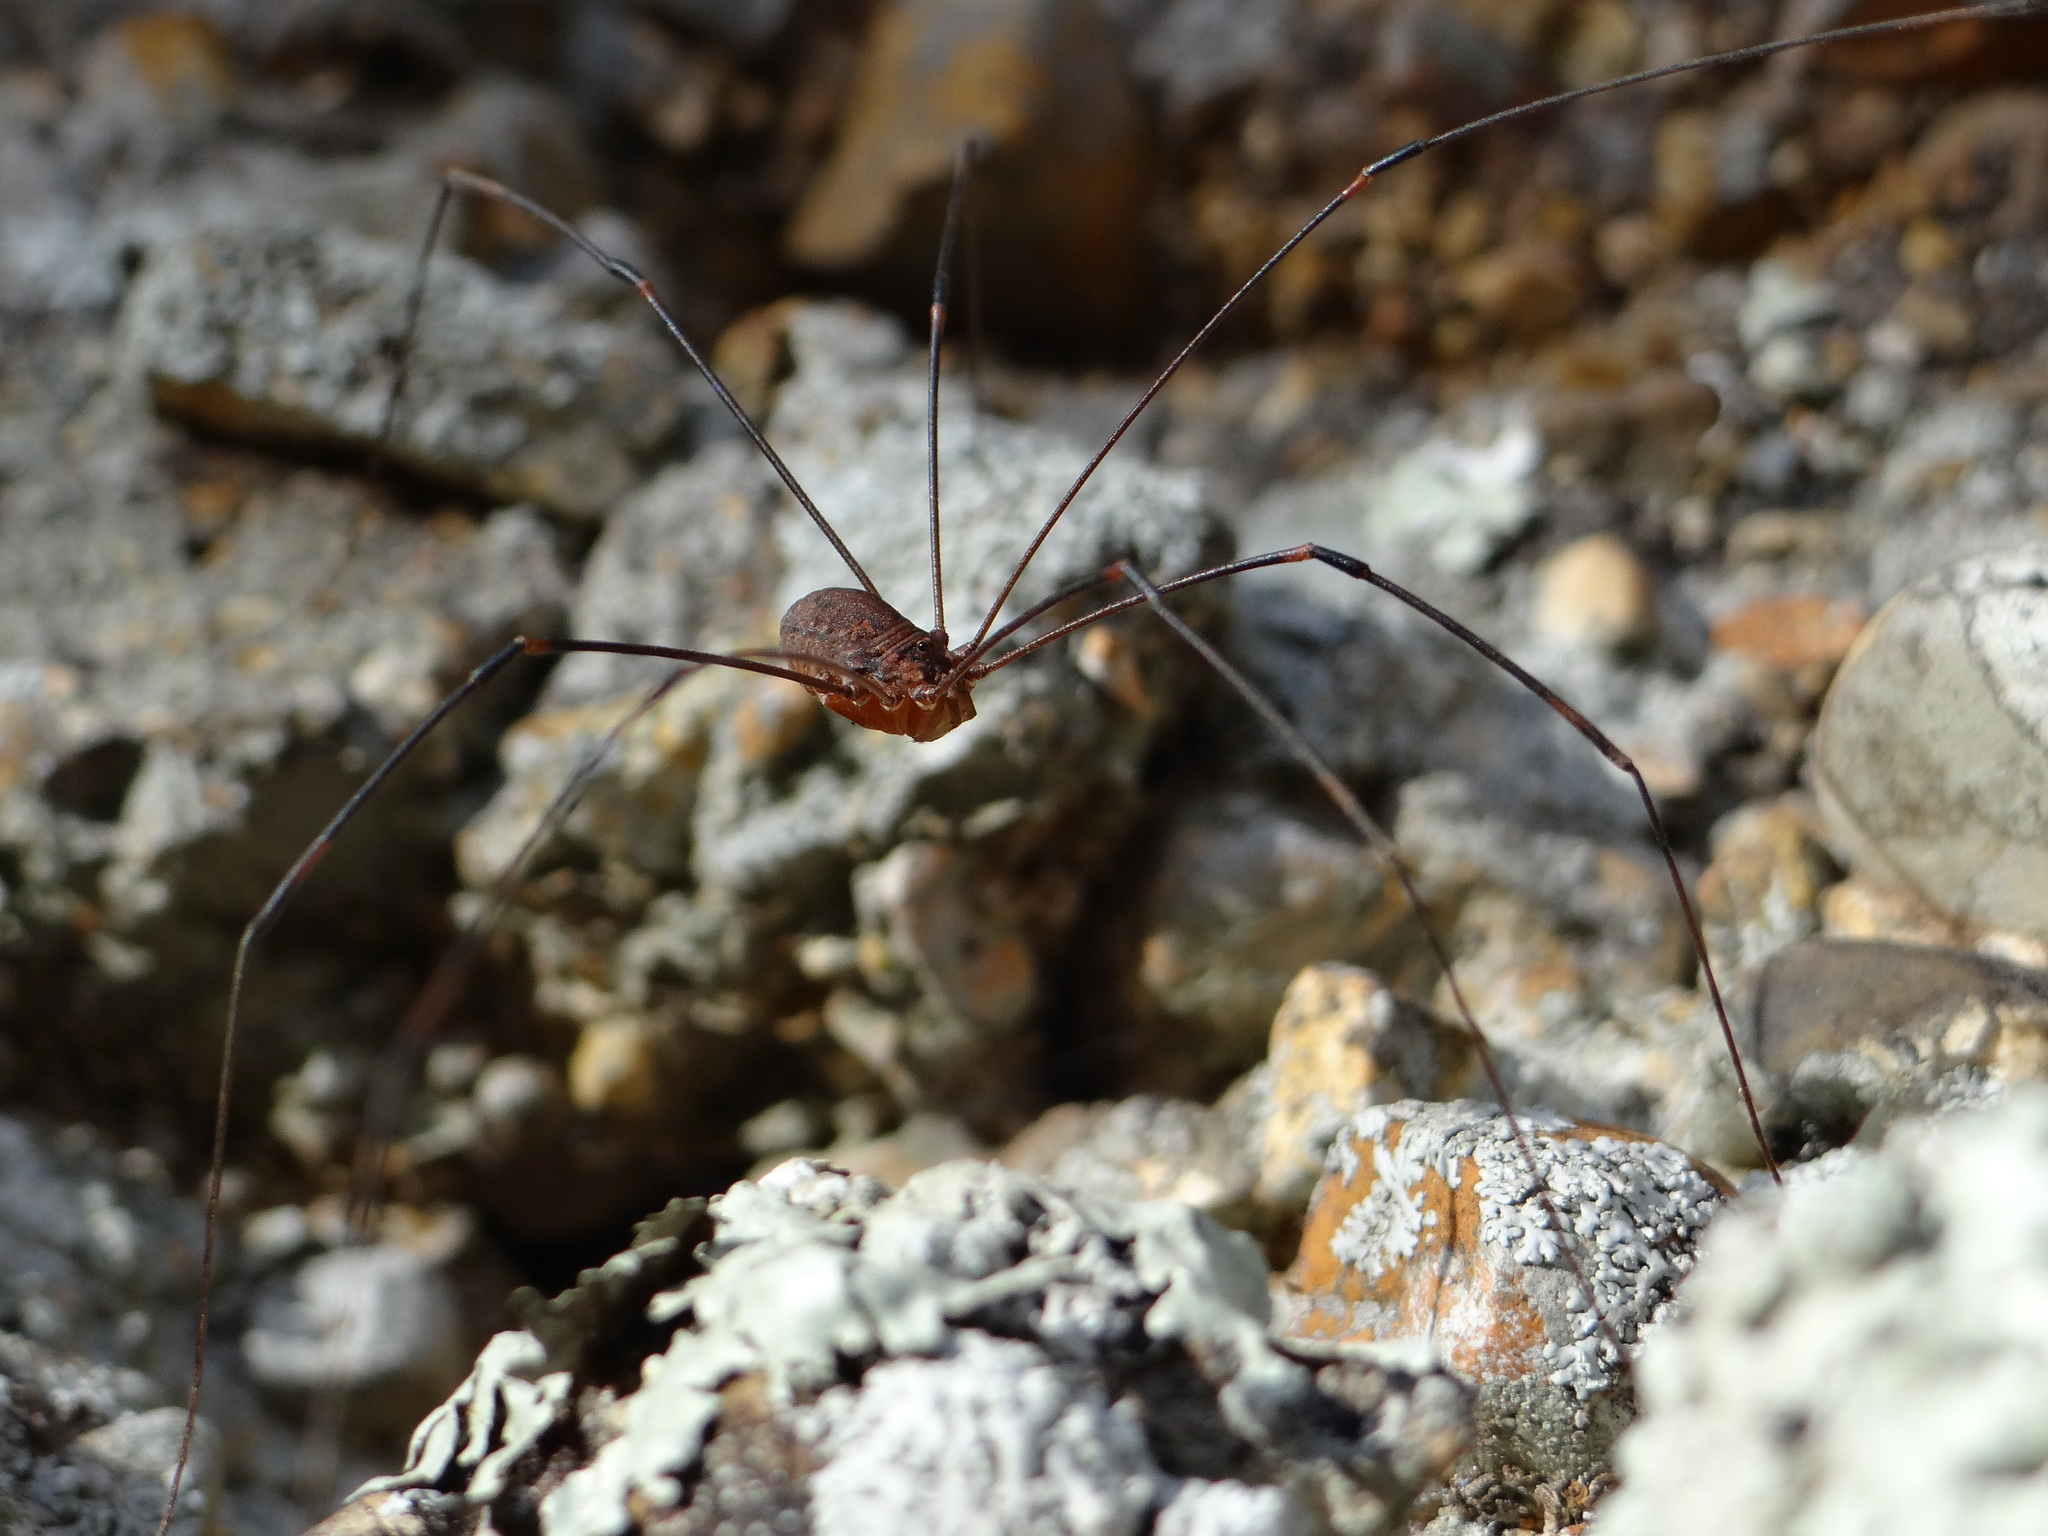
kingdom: Animalia
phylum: Arthropoda
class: Arachnida
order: Opiliones
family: Sclerosomatidae
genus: Leiobunum
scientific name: Leiobunum townsendi
